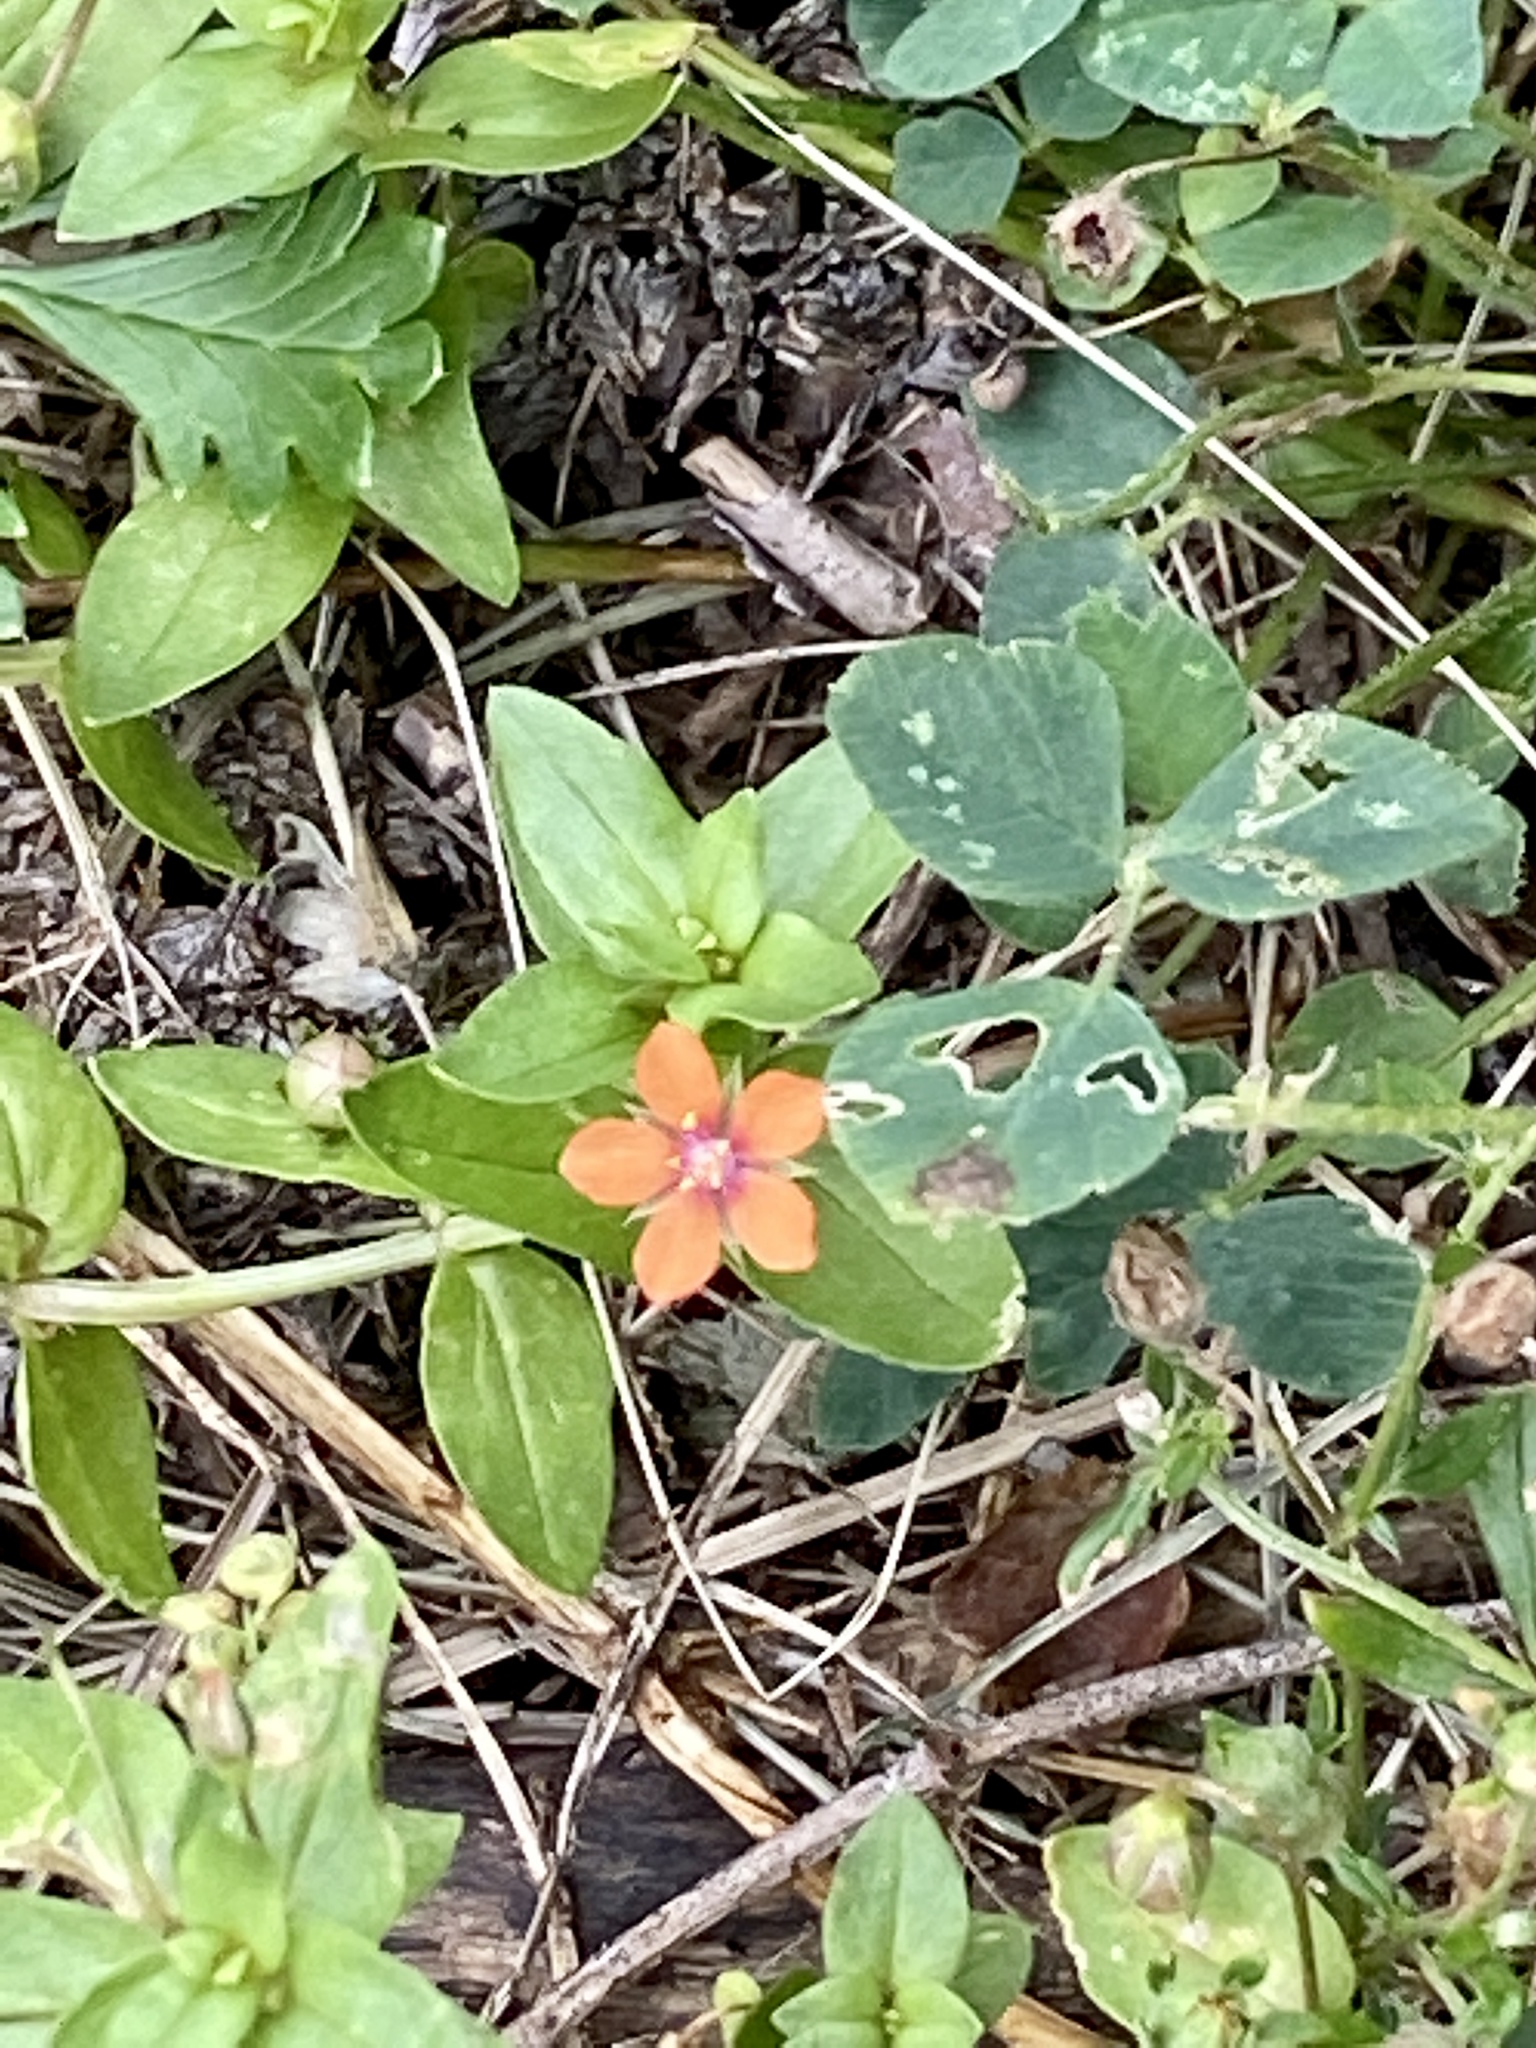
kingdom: Plantae
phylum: Tracheophyta
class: Magnoliopsida
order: Ericales
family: Primulaceae
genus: Lysimachia
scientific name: Lysimachia arvensis
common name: Scarlet pimpernel
